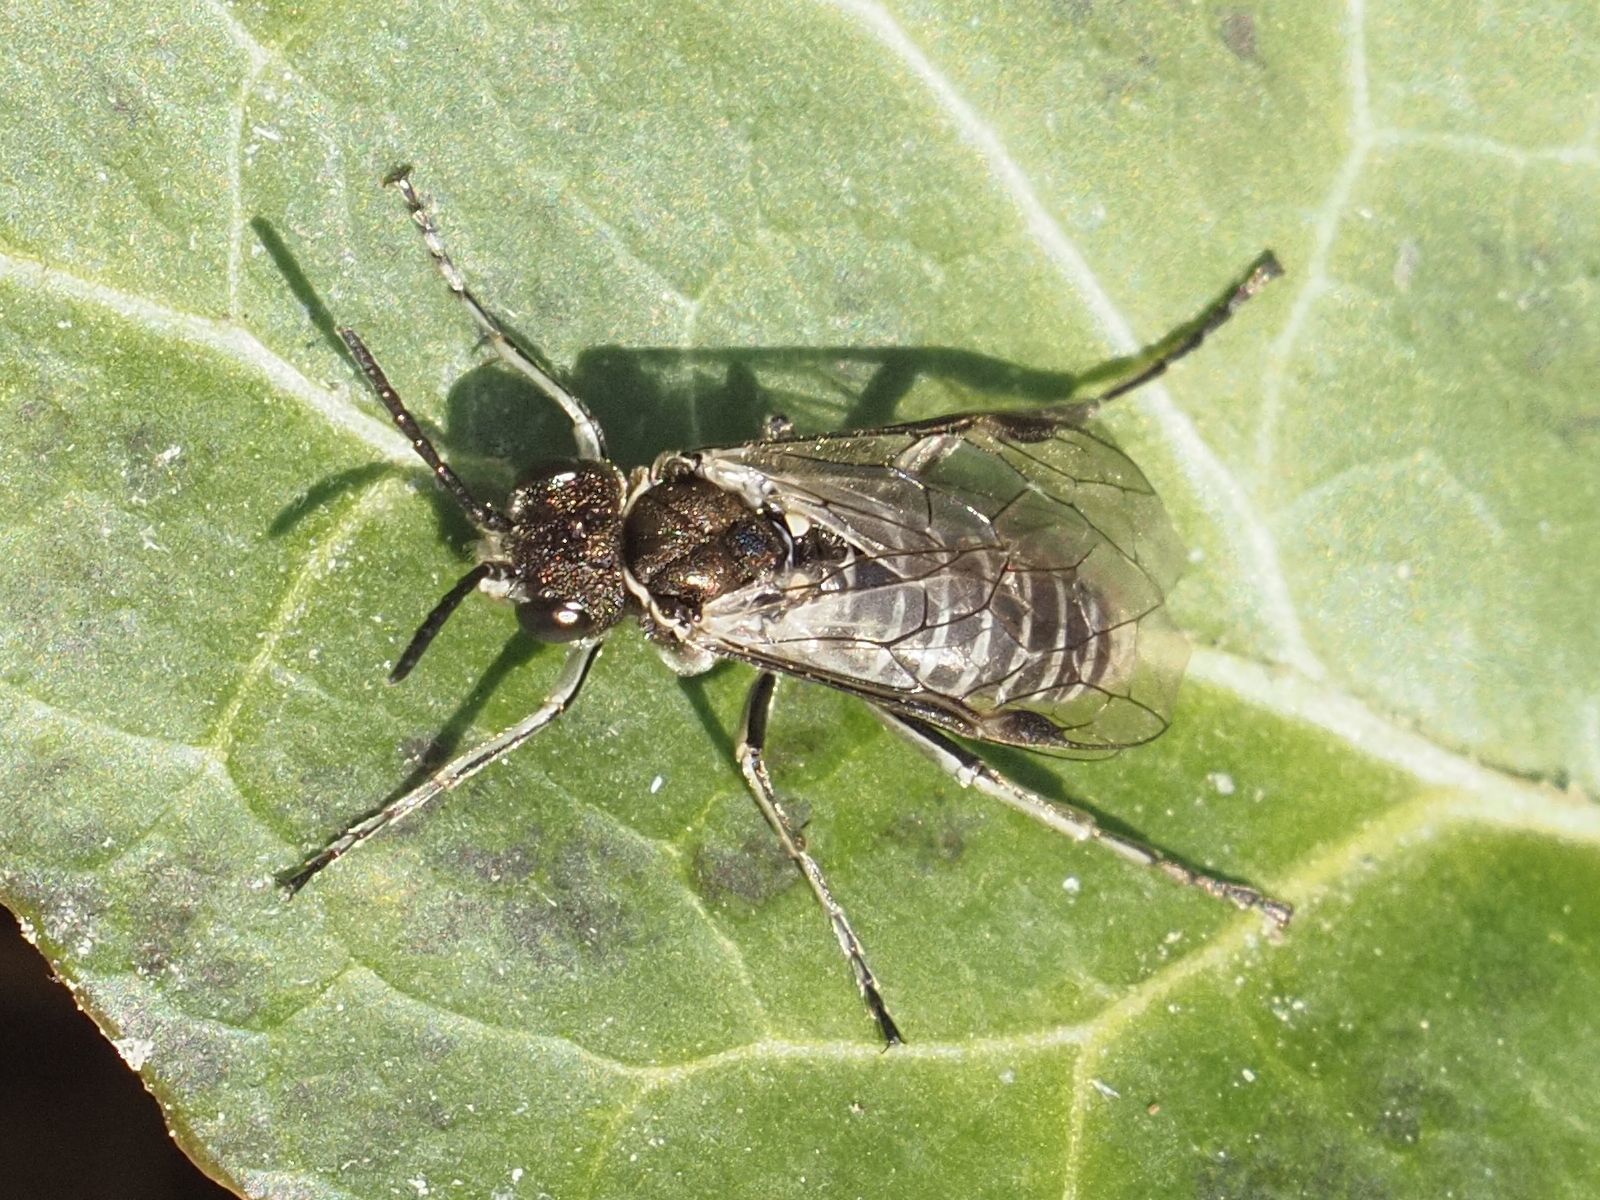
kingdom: Animalia
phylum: Arthropoda
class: Insecta
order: Hymenoptera
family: Tenthredinidae
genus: Sciapteryx
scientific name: Sciapteryx consobrina
